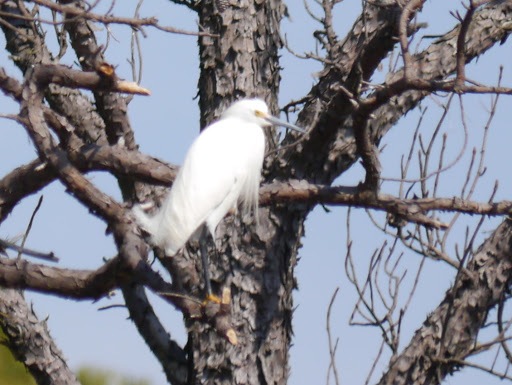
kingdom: Animalia
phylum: Chordata
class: Aves
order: Pelecaniformes
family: Ardeidae
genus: Egretta
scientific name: Egretta thula
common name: Snowy egret
